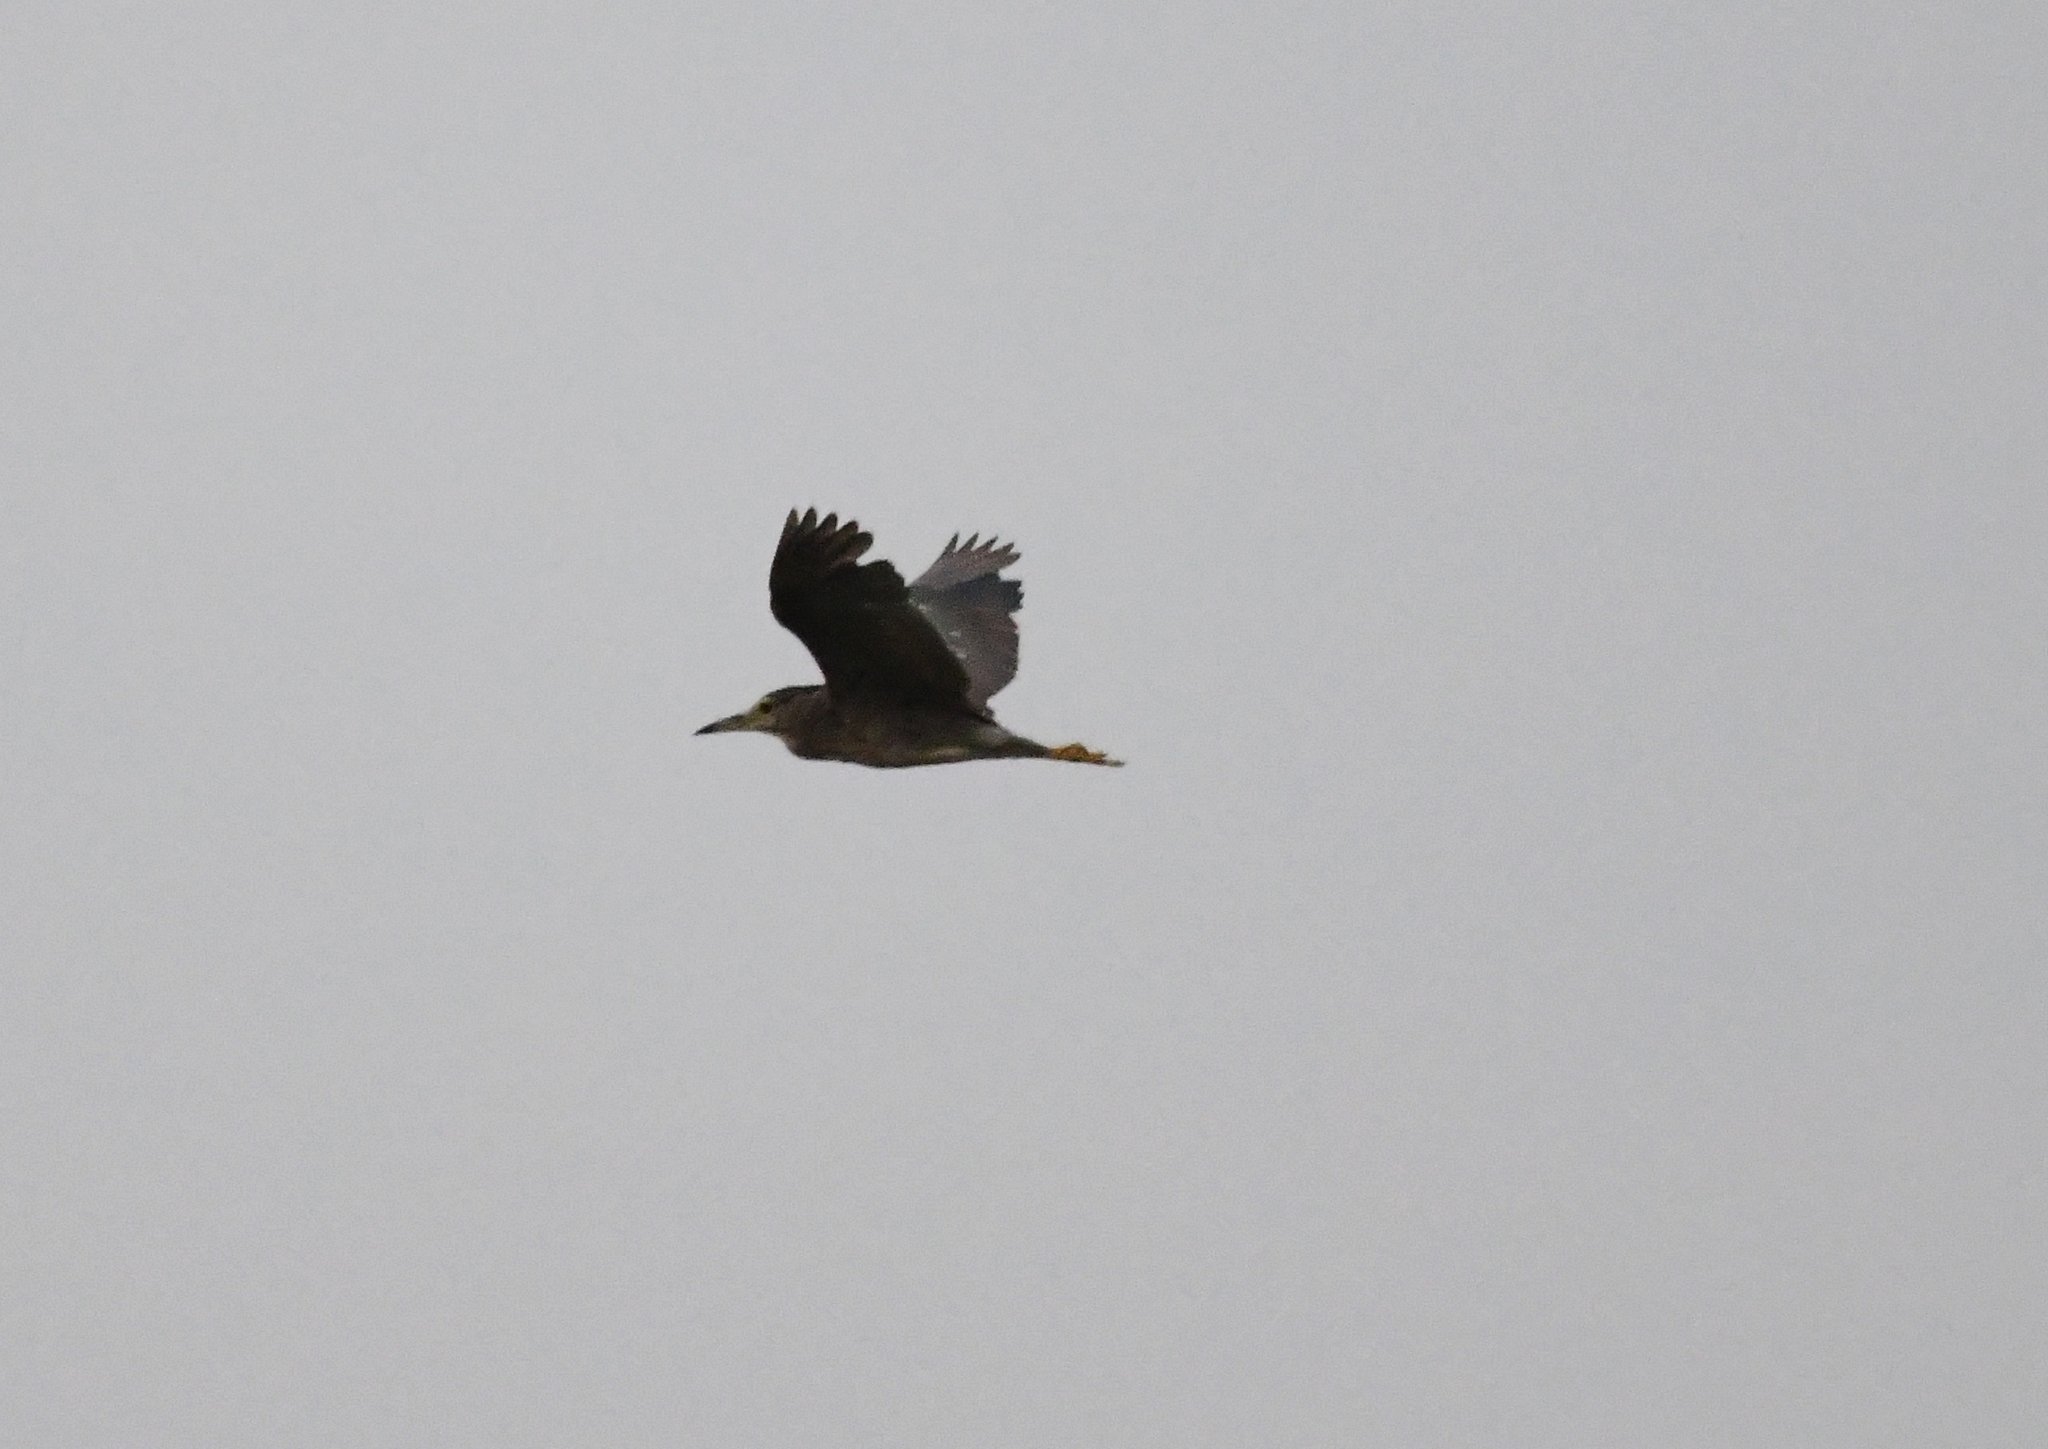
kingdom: Animalia
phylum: Chordata
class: Aves
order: Pelecaniformes
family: Ardeidae
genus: Nycticorax
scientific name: Nycticorax nycticorax
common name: Black-crowned night heron
